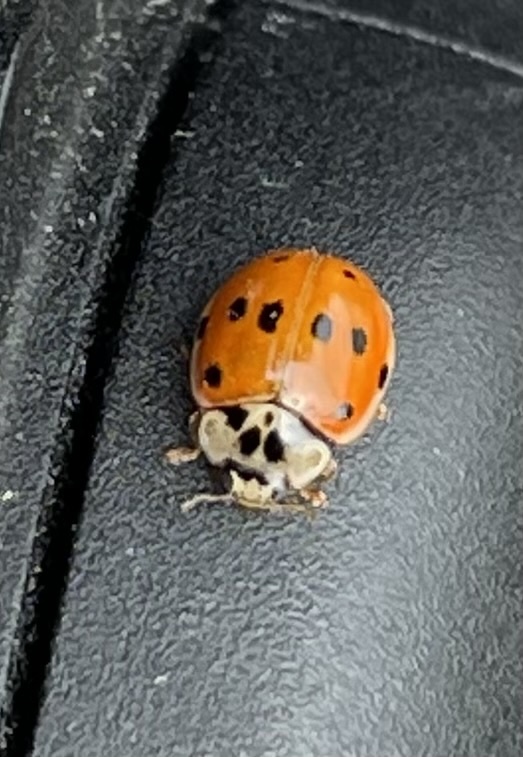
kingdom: Animalia
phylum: Arthropoda
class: Insecta
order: Coleoptera
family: Coccinellidae
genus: Adalia
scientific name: Adalia decempunctata
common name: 10-spot ladybird
